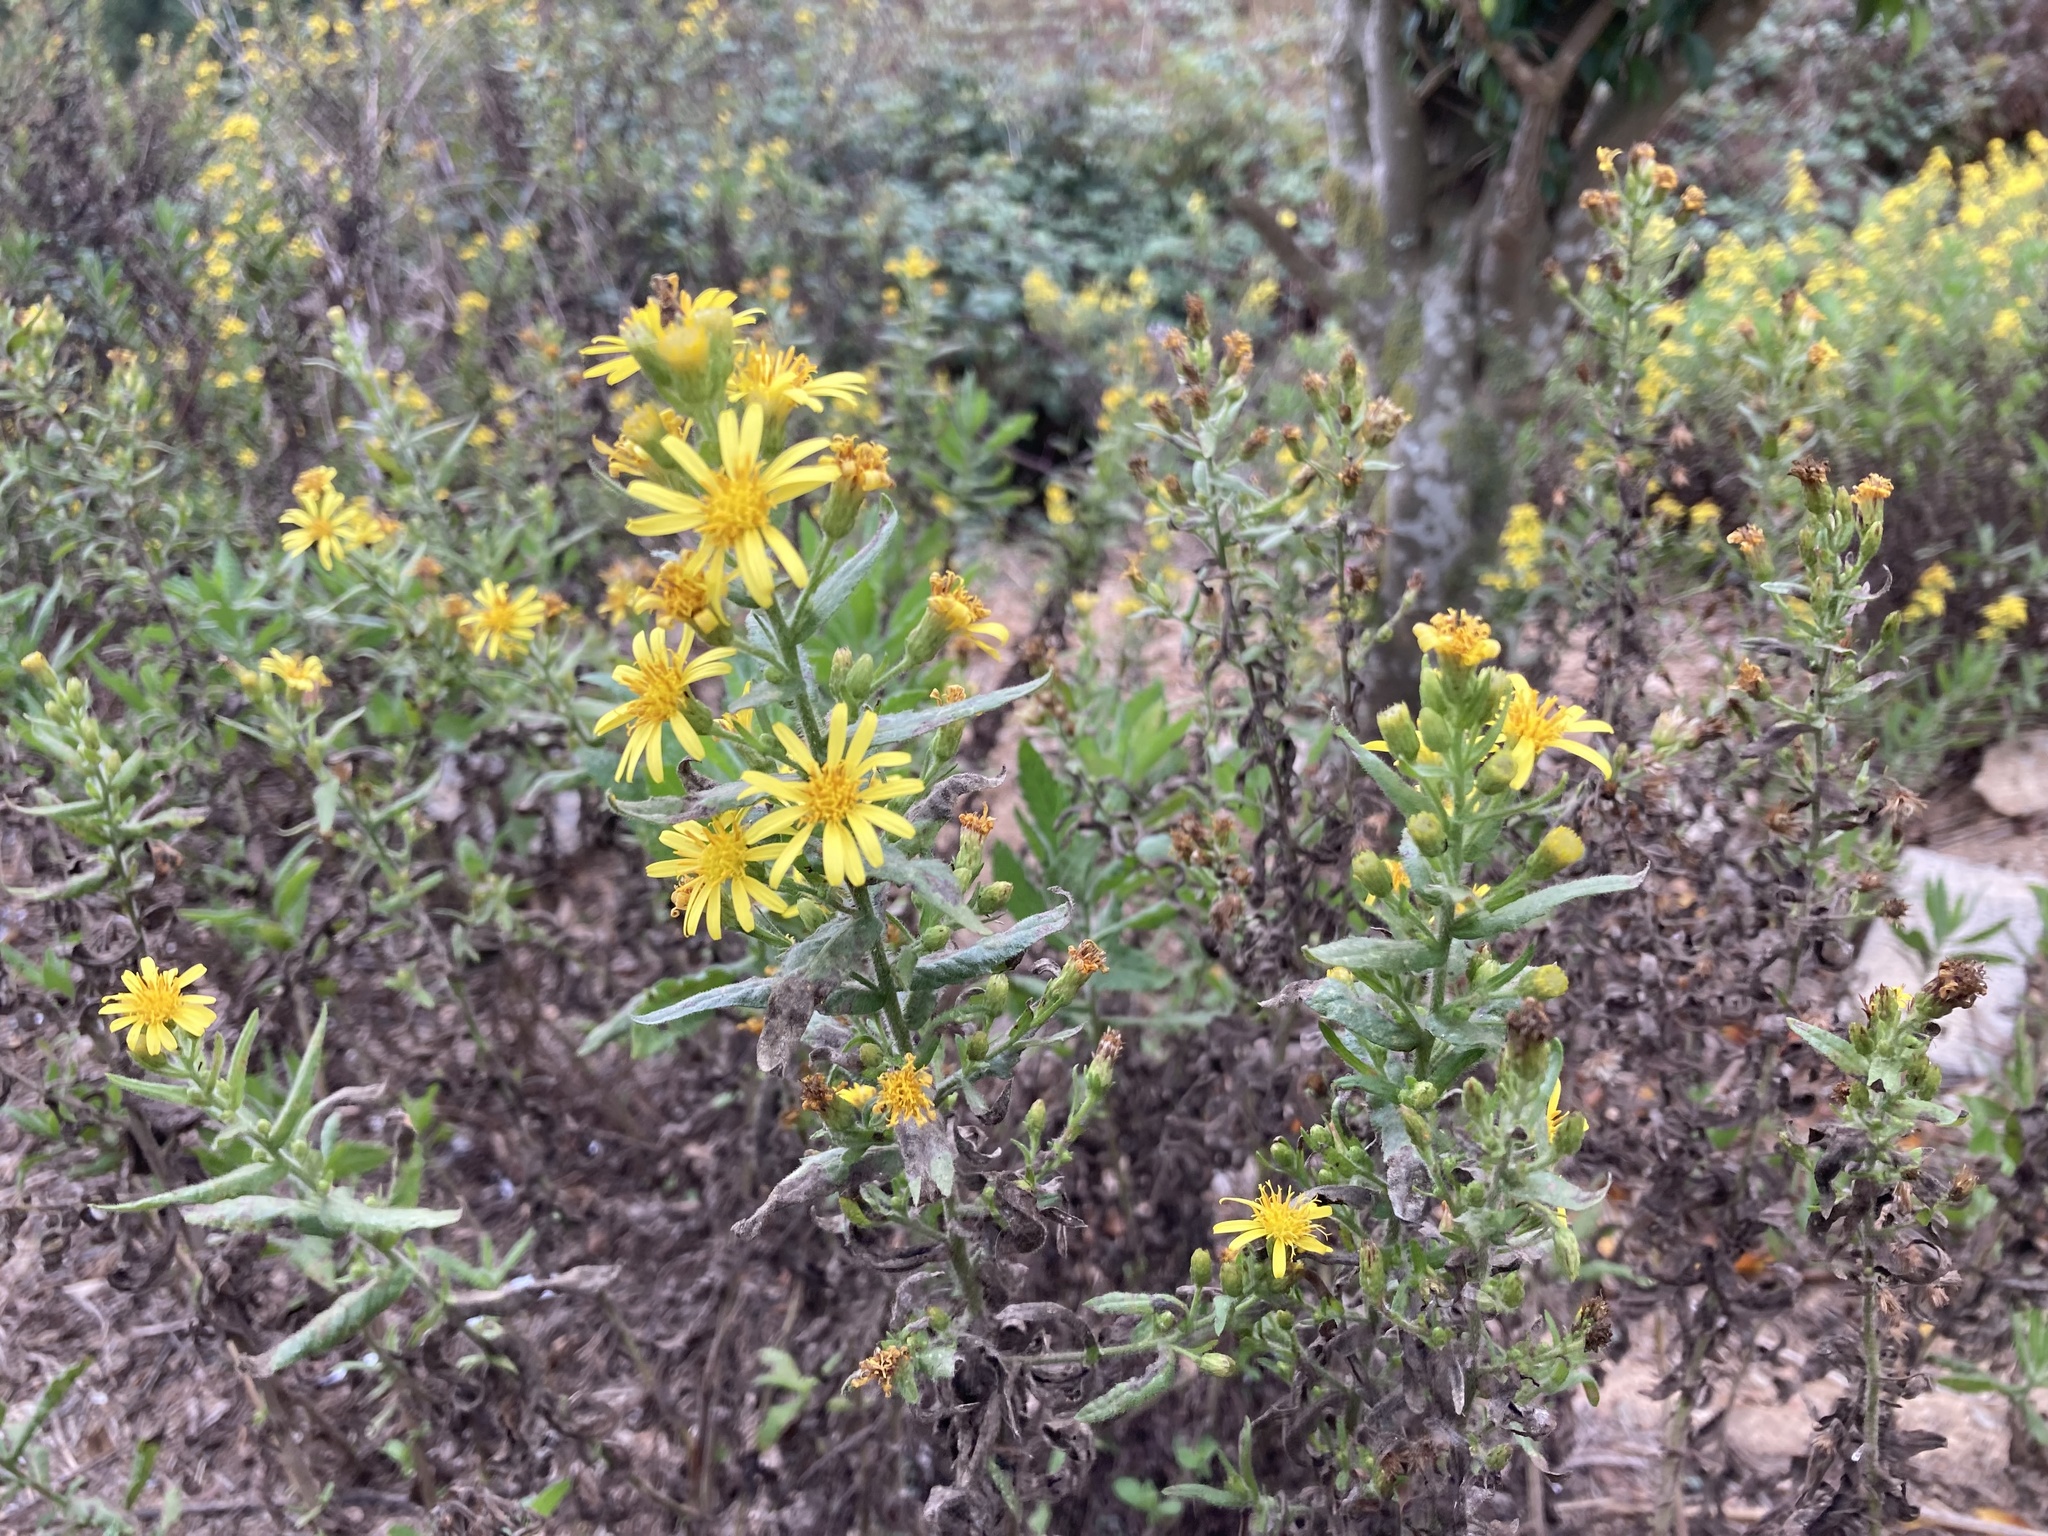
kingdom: Plantae
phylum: Tracheophyta
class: Magnoliopsida
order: Asterales
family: Asteraceae
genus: Dittrichia
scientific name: Dittrichia viscosa
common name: Woody fleabane
